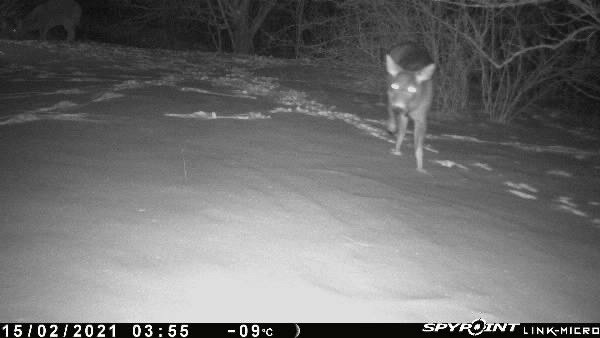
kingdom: Animalia
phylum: Chordata
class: Mammalia
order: Artiodactyla
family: Cervidae
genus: Odocoileus
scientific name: Odocoileus virginianus
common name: White-tailed deer
